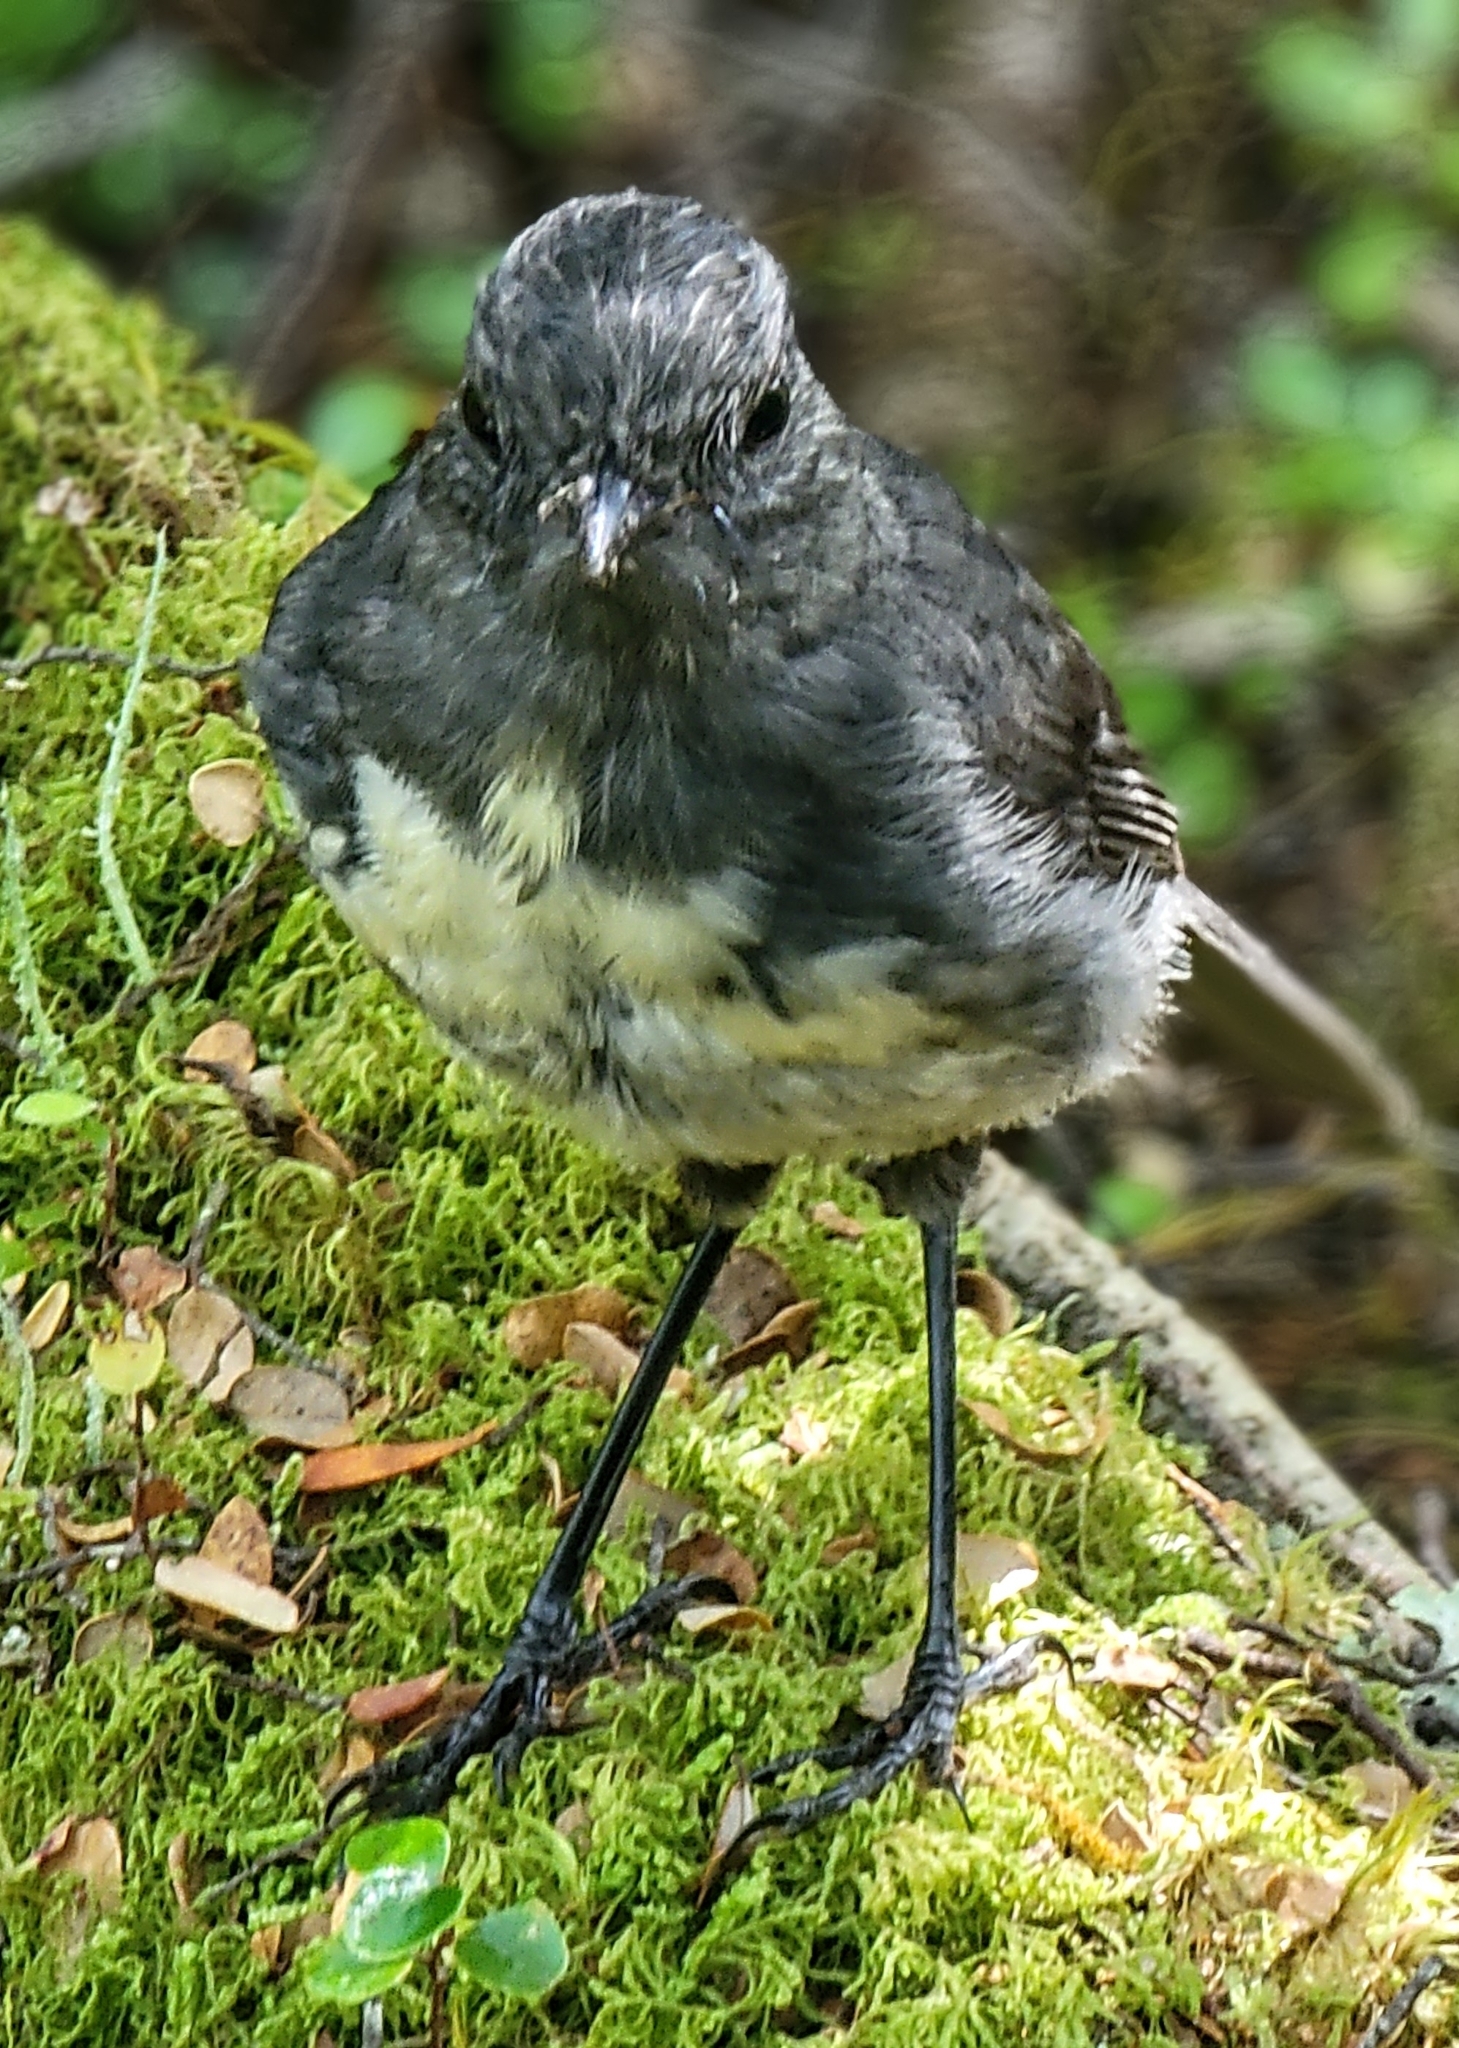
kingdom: Animalia
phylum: Chordata
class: Aves
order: Passeriformes
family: Petroicidae
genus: Petroica
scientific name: Petroica australis
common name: New zealand robin
